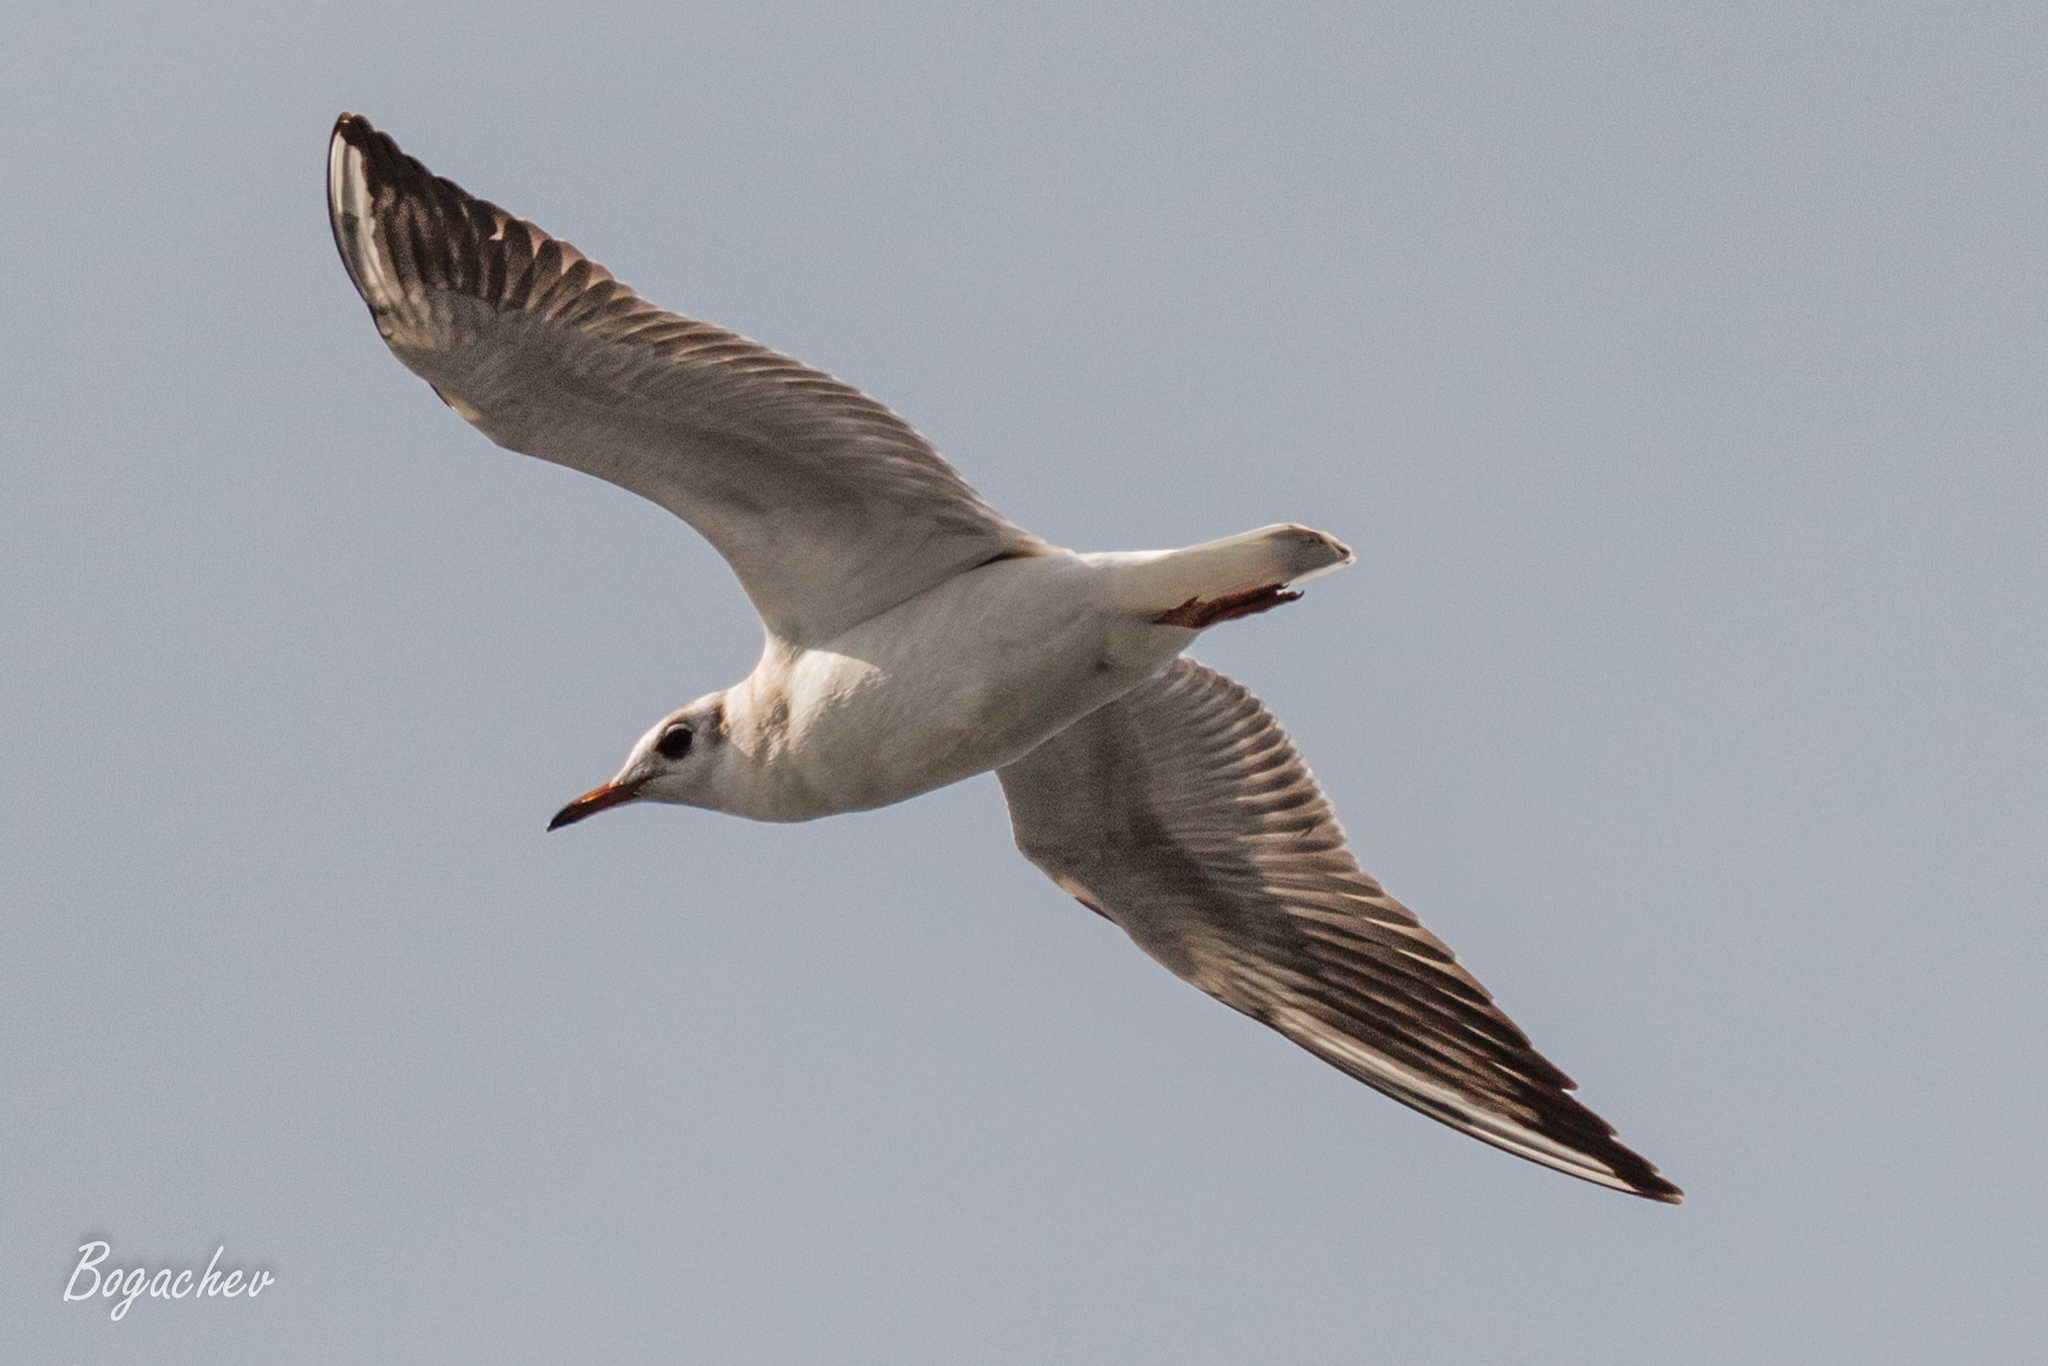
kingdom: Animalia
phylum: Chordata
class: Aves
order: Charadriiformes
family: Laridae
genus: Chroicocephalus
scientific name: Chroicocephalus ridibundus
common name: Black-headed gull
